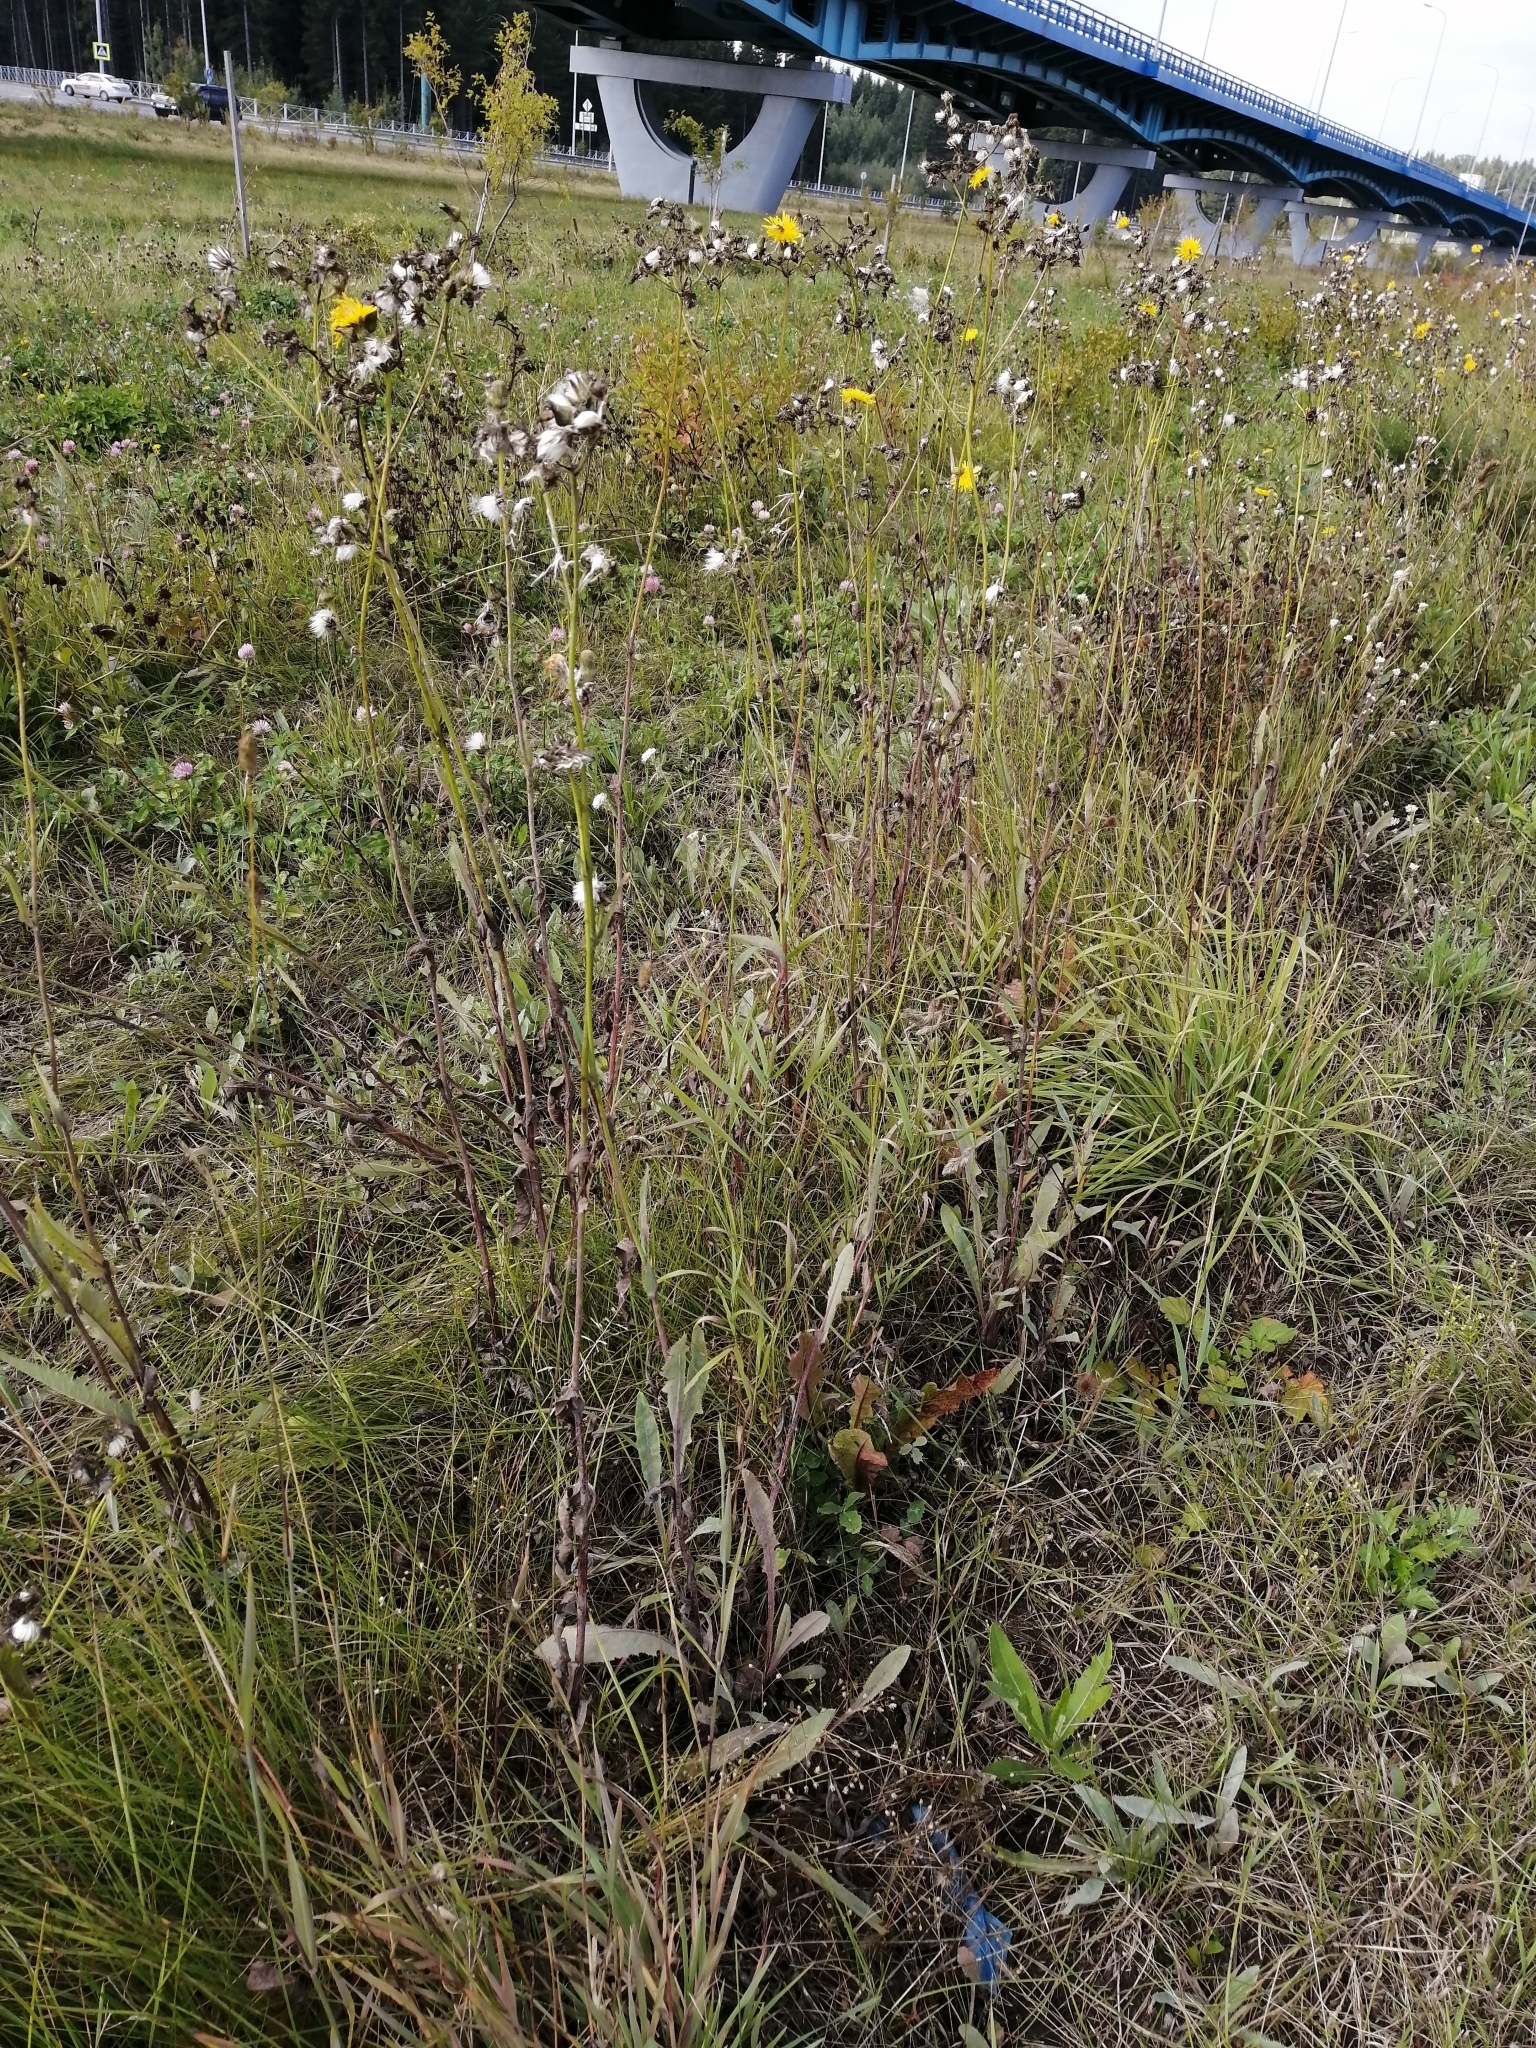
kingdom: Plantae
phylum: Tracheophyta
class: Magnoliopsida
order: Asterales
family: Asteraceae
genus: Sonchus
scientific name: Sonchus arvensis
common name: Perennial sow-thistle
